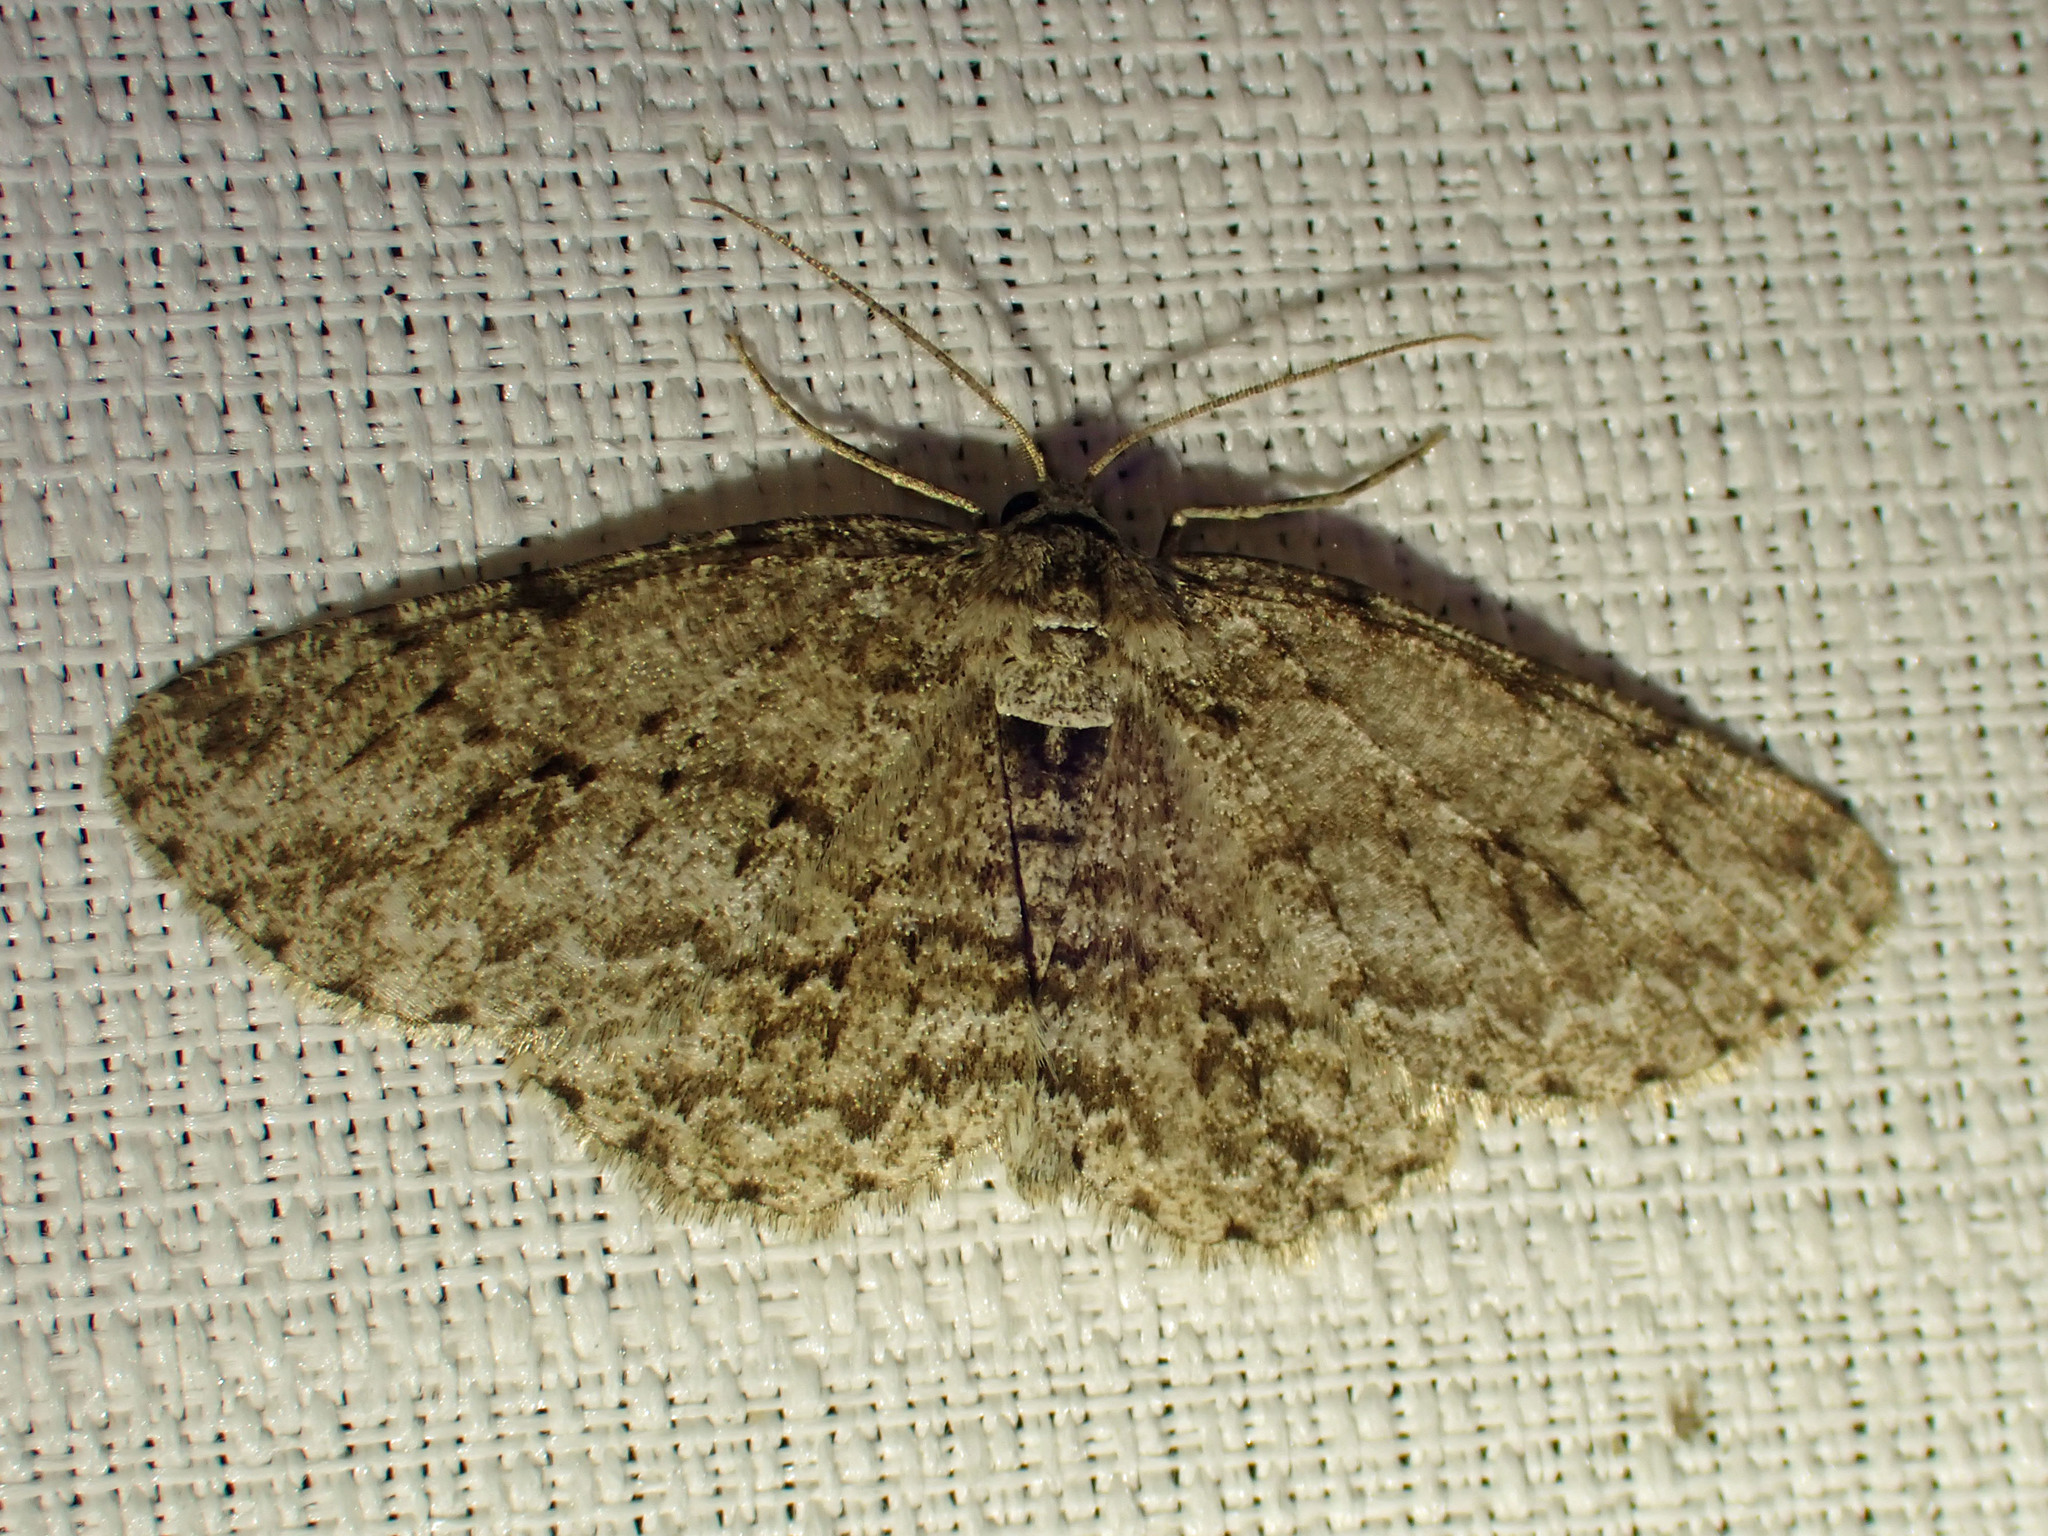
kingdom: Animalia
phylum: Arthropoda
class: Insecta
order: Lepidoptera
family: Geometridae
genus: Ectropis
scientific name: Ectropis crepuscularia
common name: Engrailed
